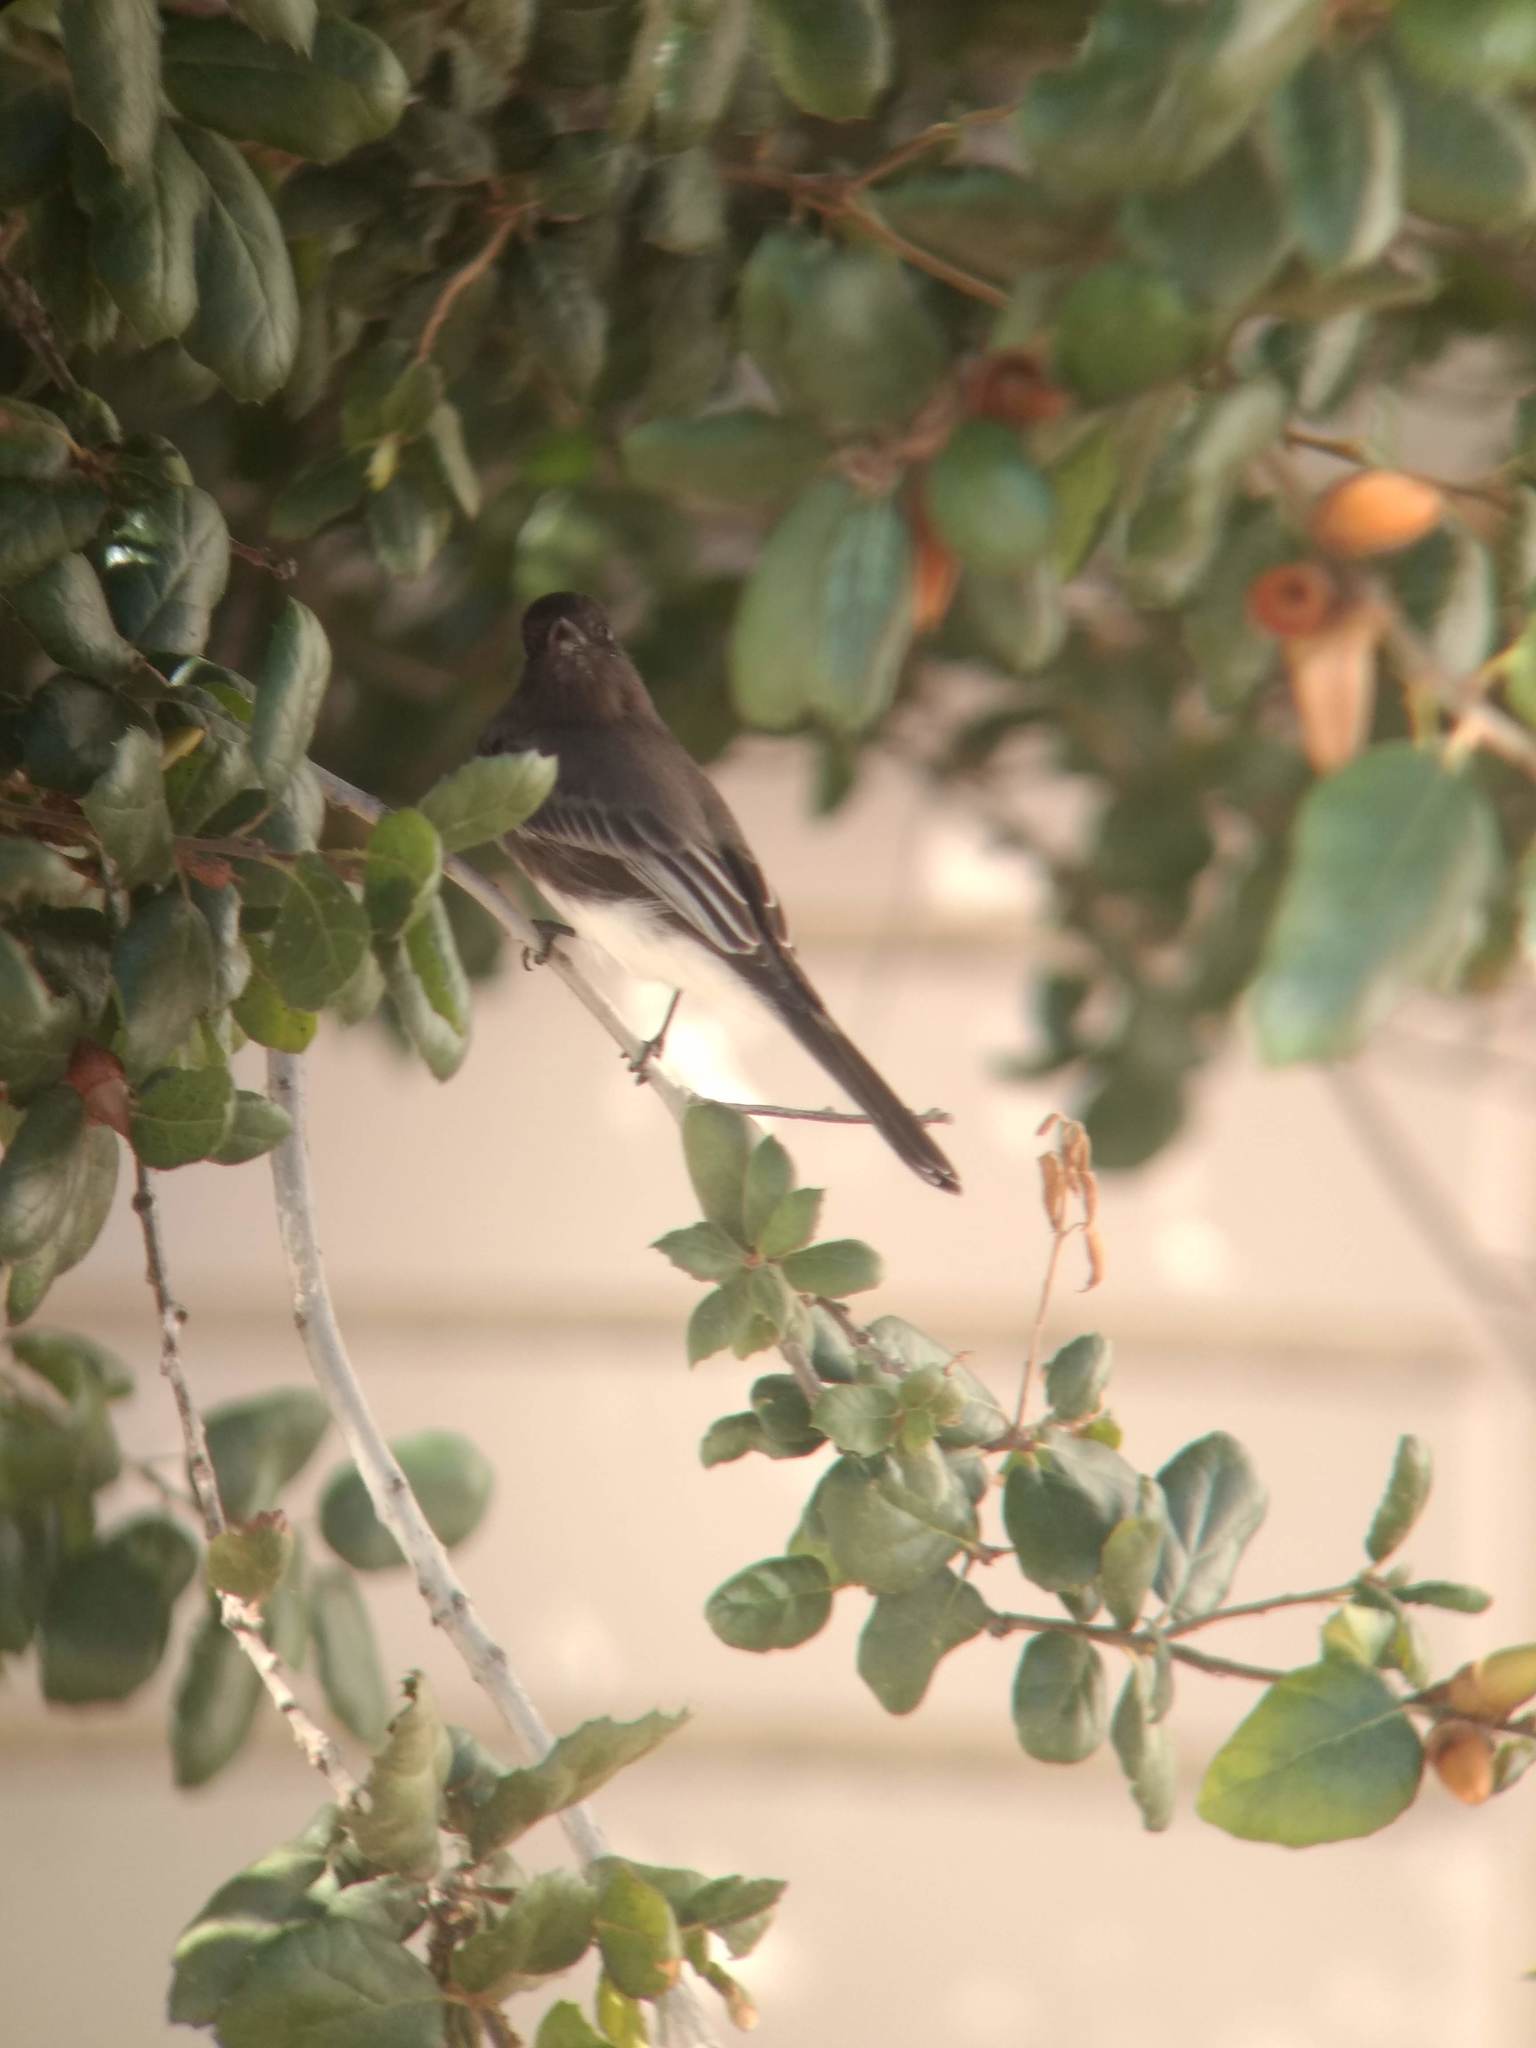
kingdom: Animalia
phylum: Chordata
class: Aves
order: Passeriformes
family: Tyrannidae
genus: Sayornis
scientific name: Sayornis nigricans
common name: Black phoebe
